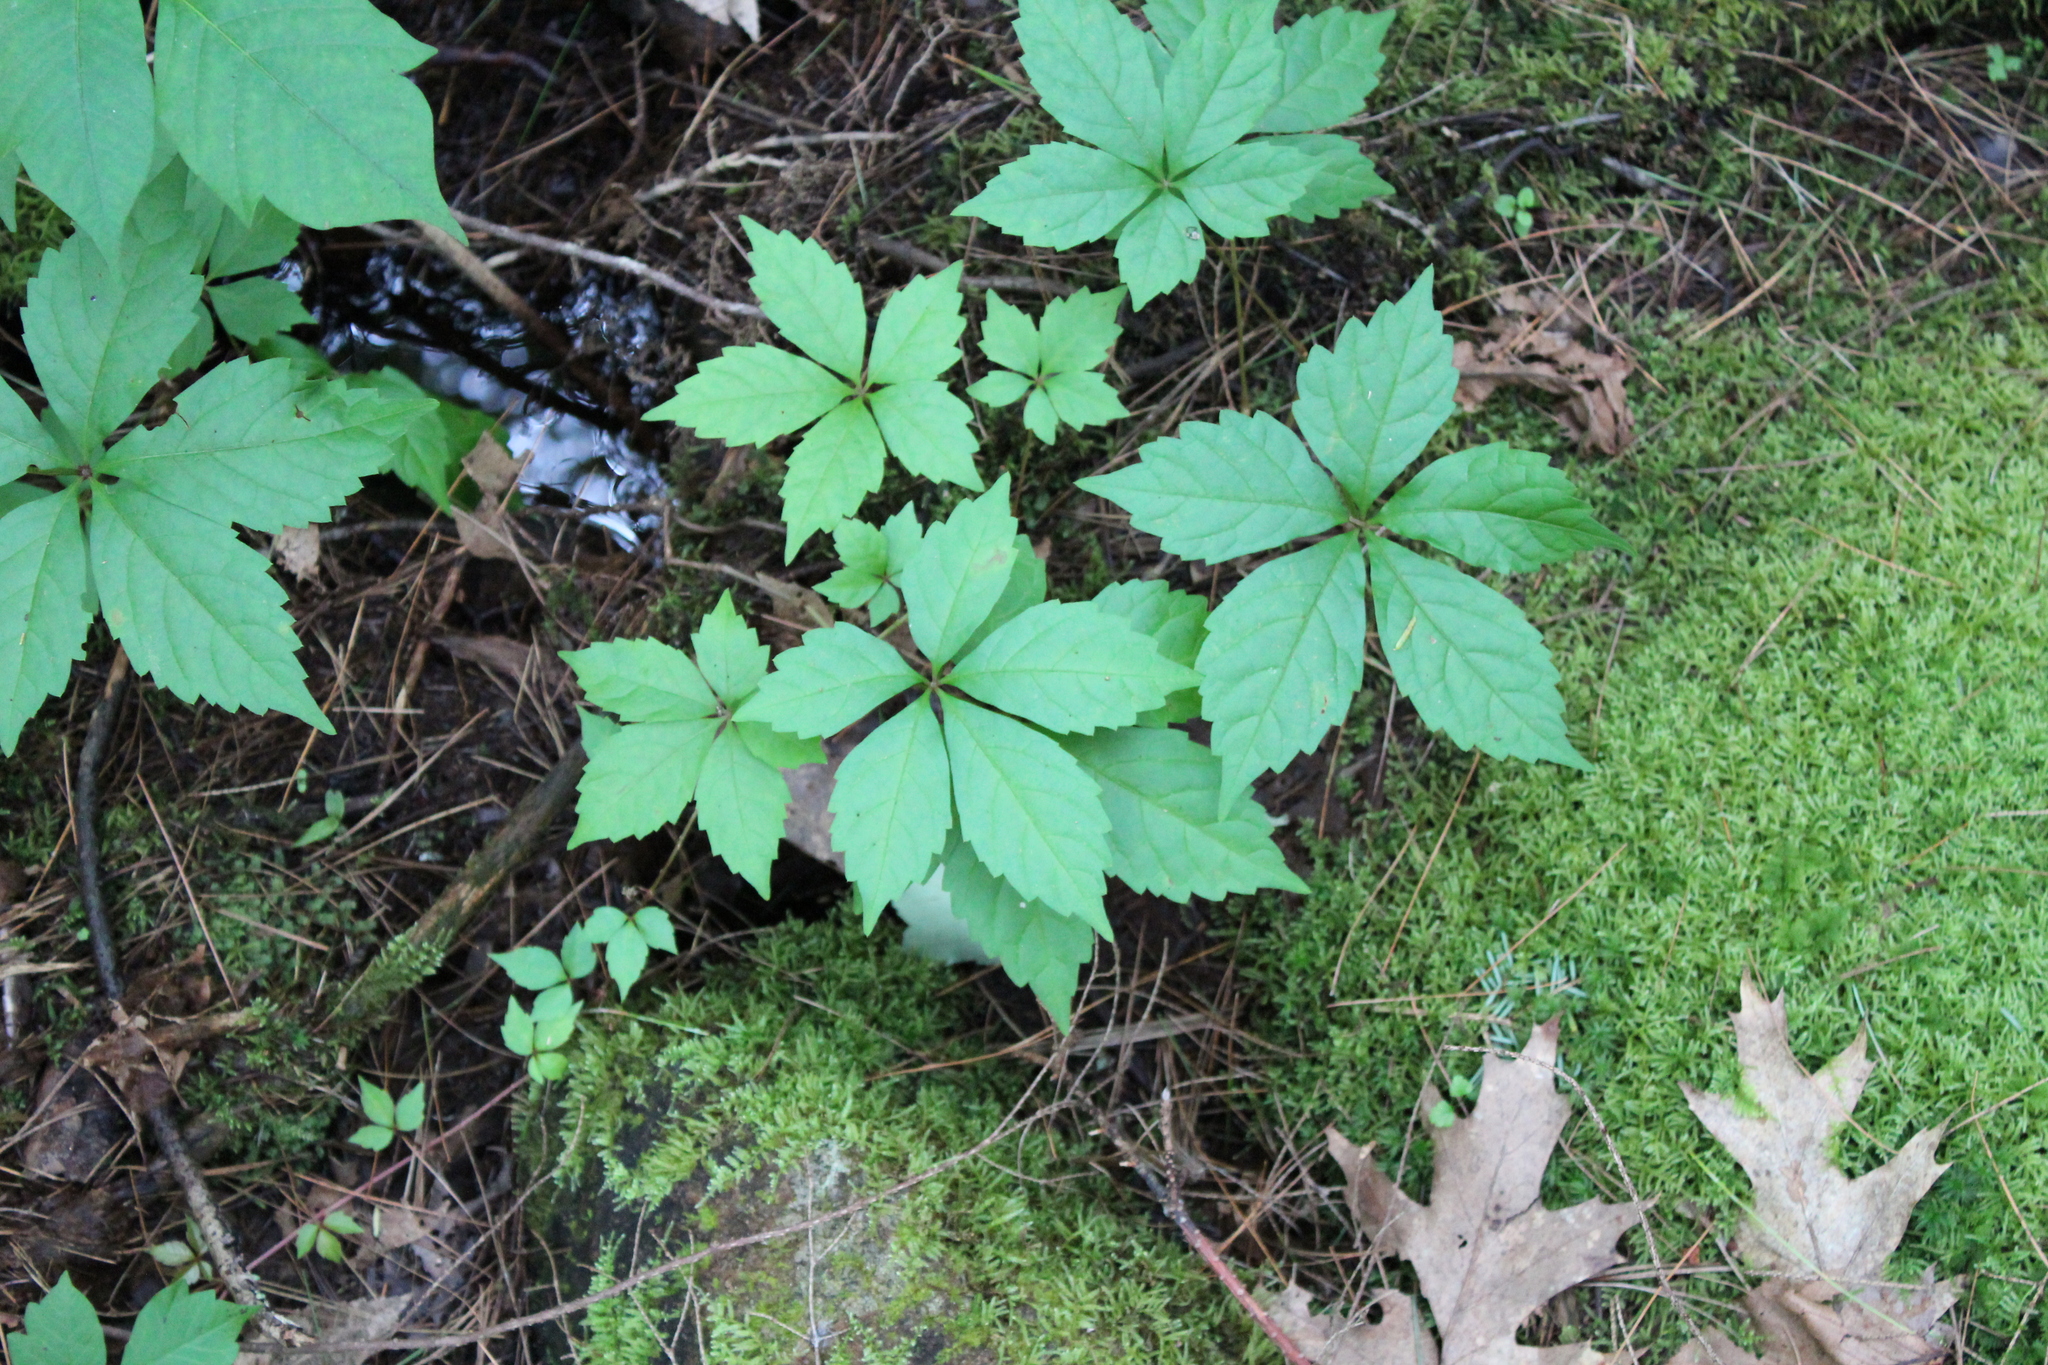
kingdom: Plantae
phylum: Tracheophyta
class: Magnoliopsida
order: Vitales
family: Vitaceae
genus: Parthenocissus
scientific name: Parthenocissus quinquefolia
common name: Virginia-creeper
